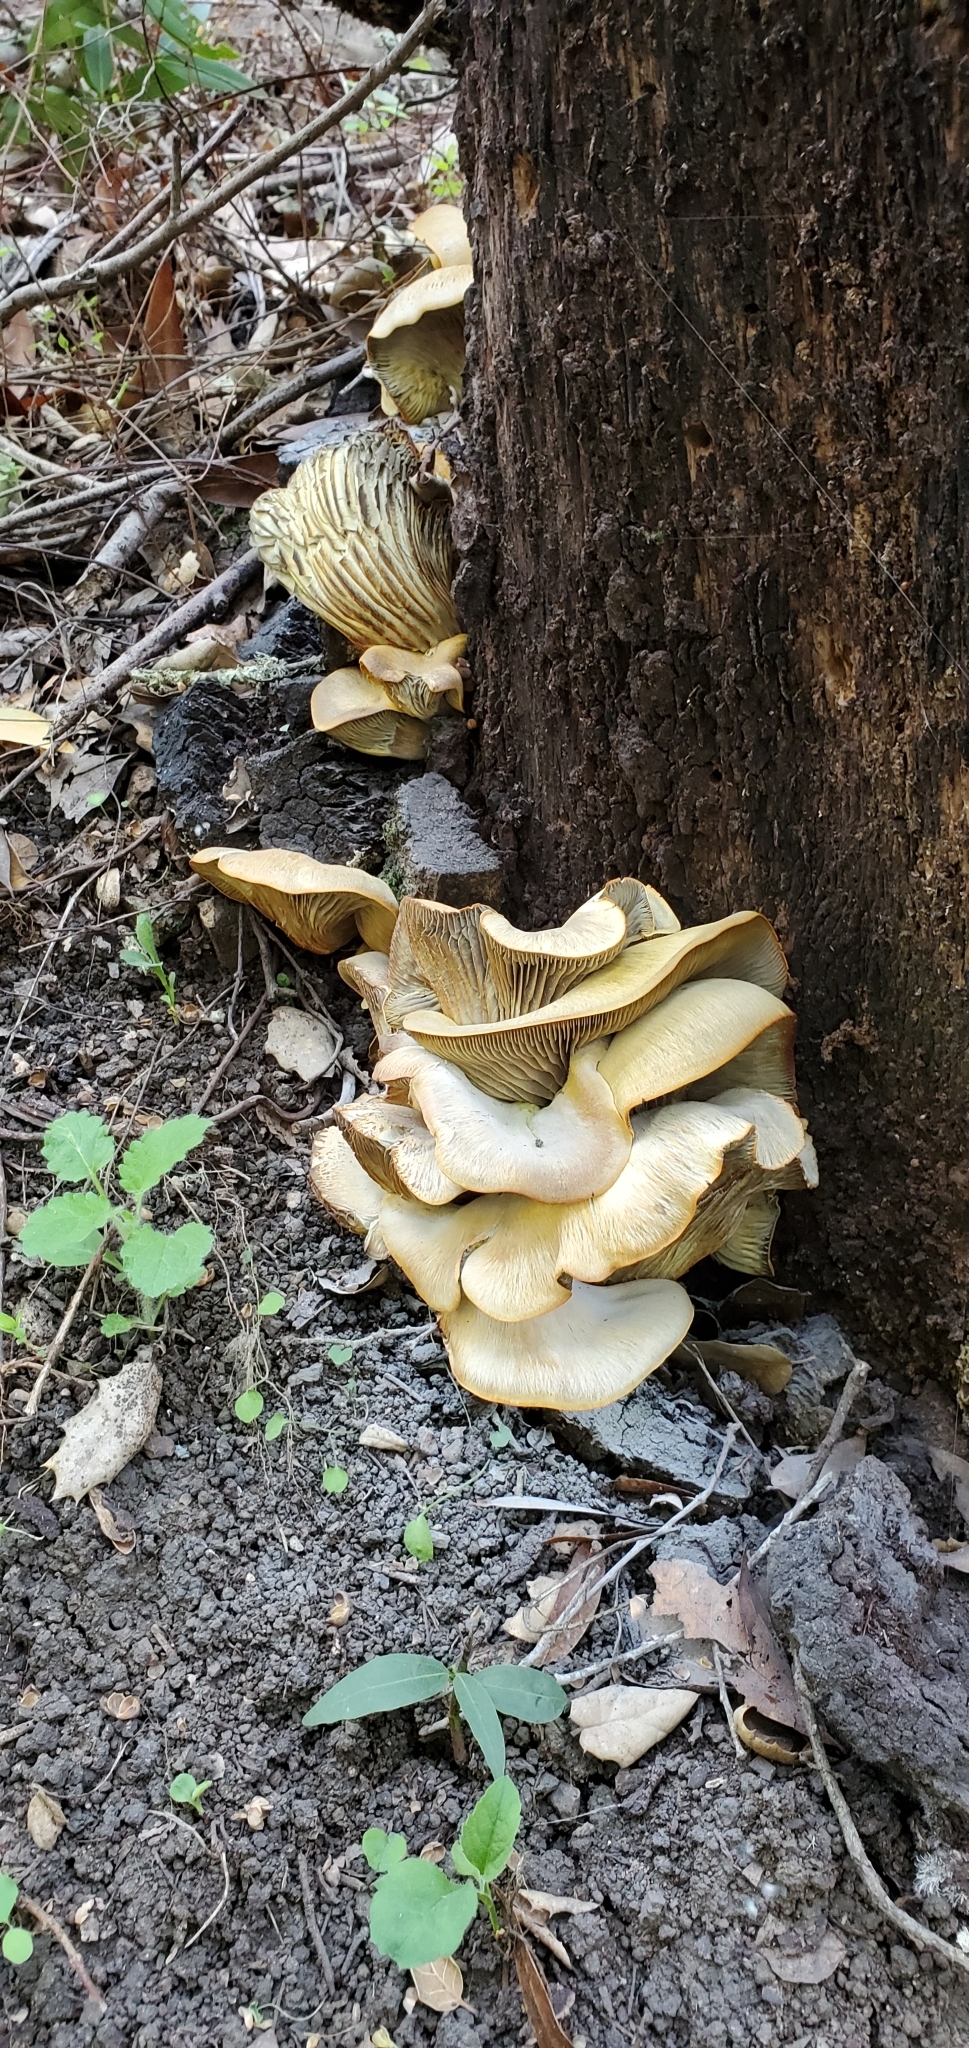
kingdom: Fungi
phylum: Basidiomycota
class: Agaricomycetes
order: Agaricales
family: Omphalotaceae
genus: Omphalotus
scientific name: Omphalotus olivascens
